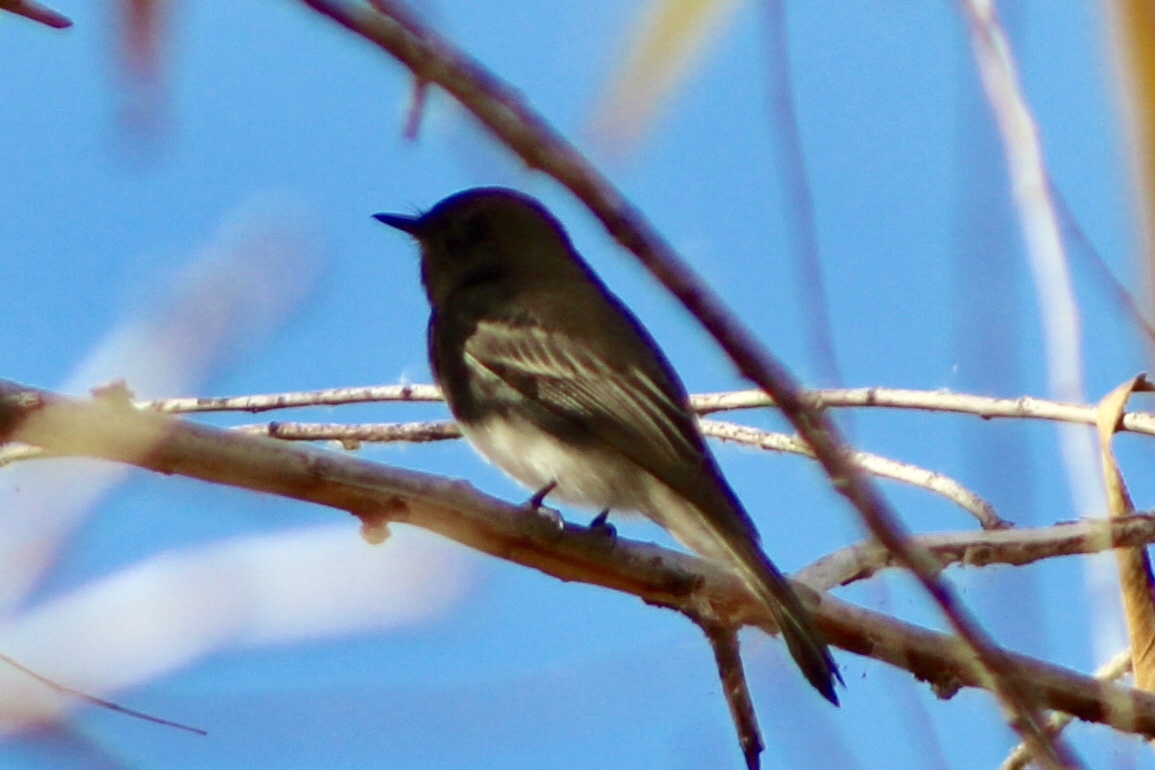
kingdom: Animalia
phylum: Chordata
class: Aves
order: Passeriformes
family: Tyrannidae
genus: Sayornis
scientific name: Sayornis nigricans
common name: Black phoebe
